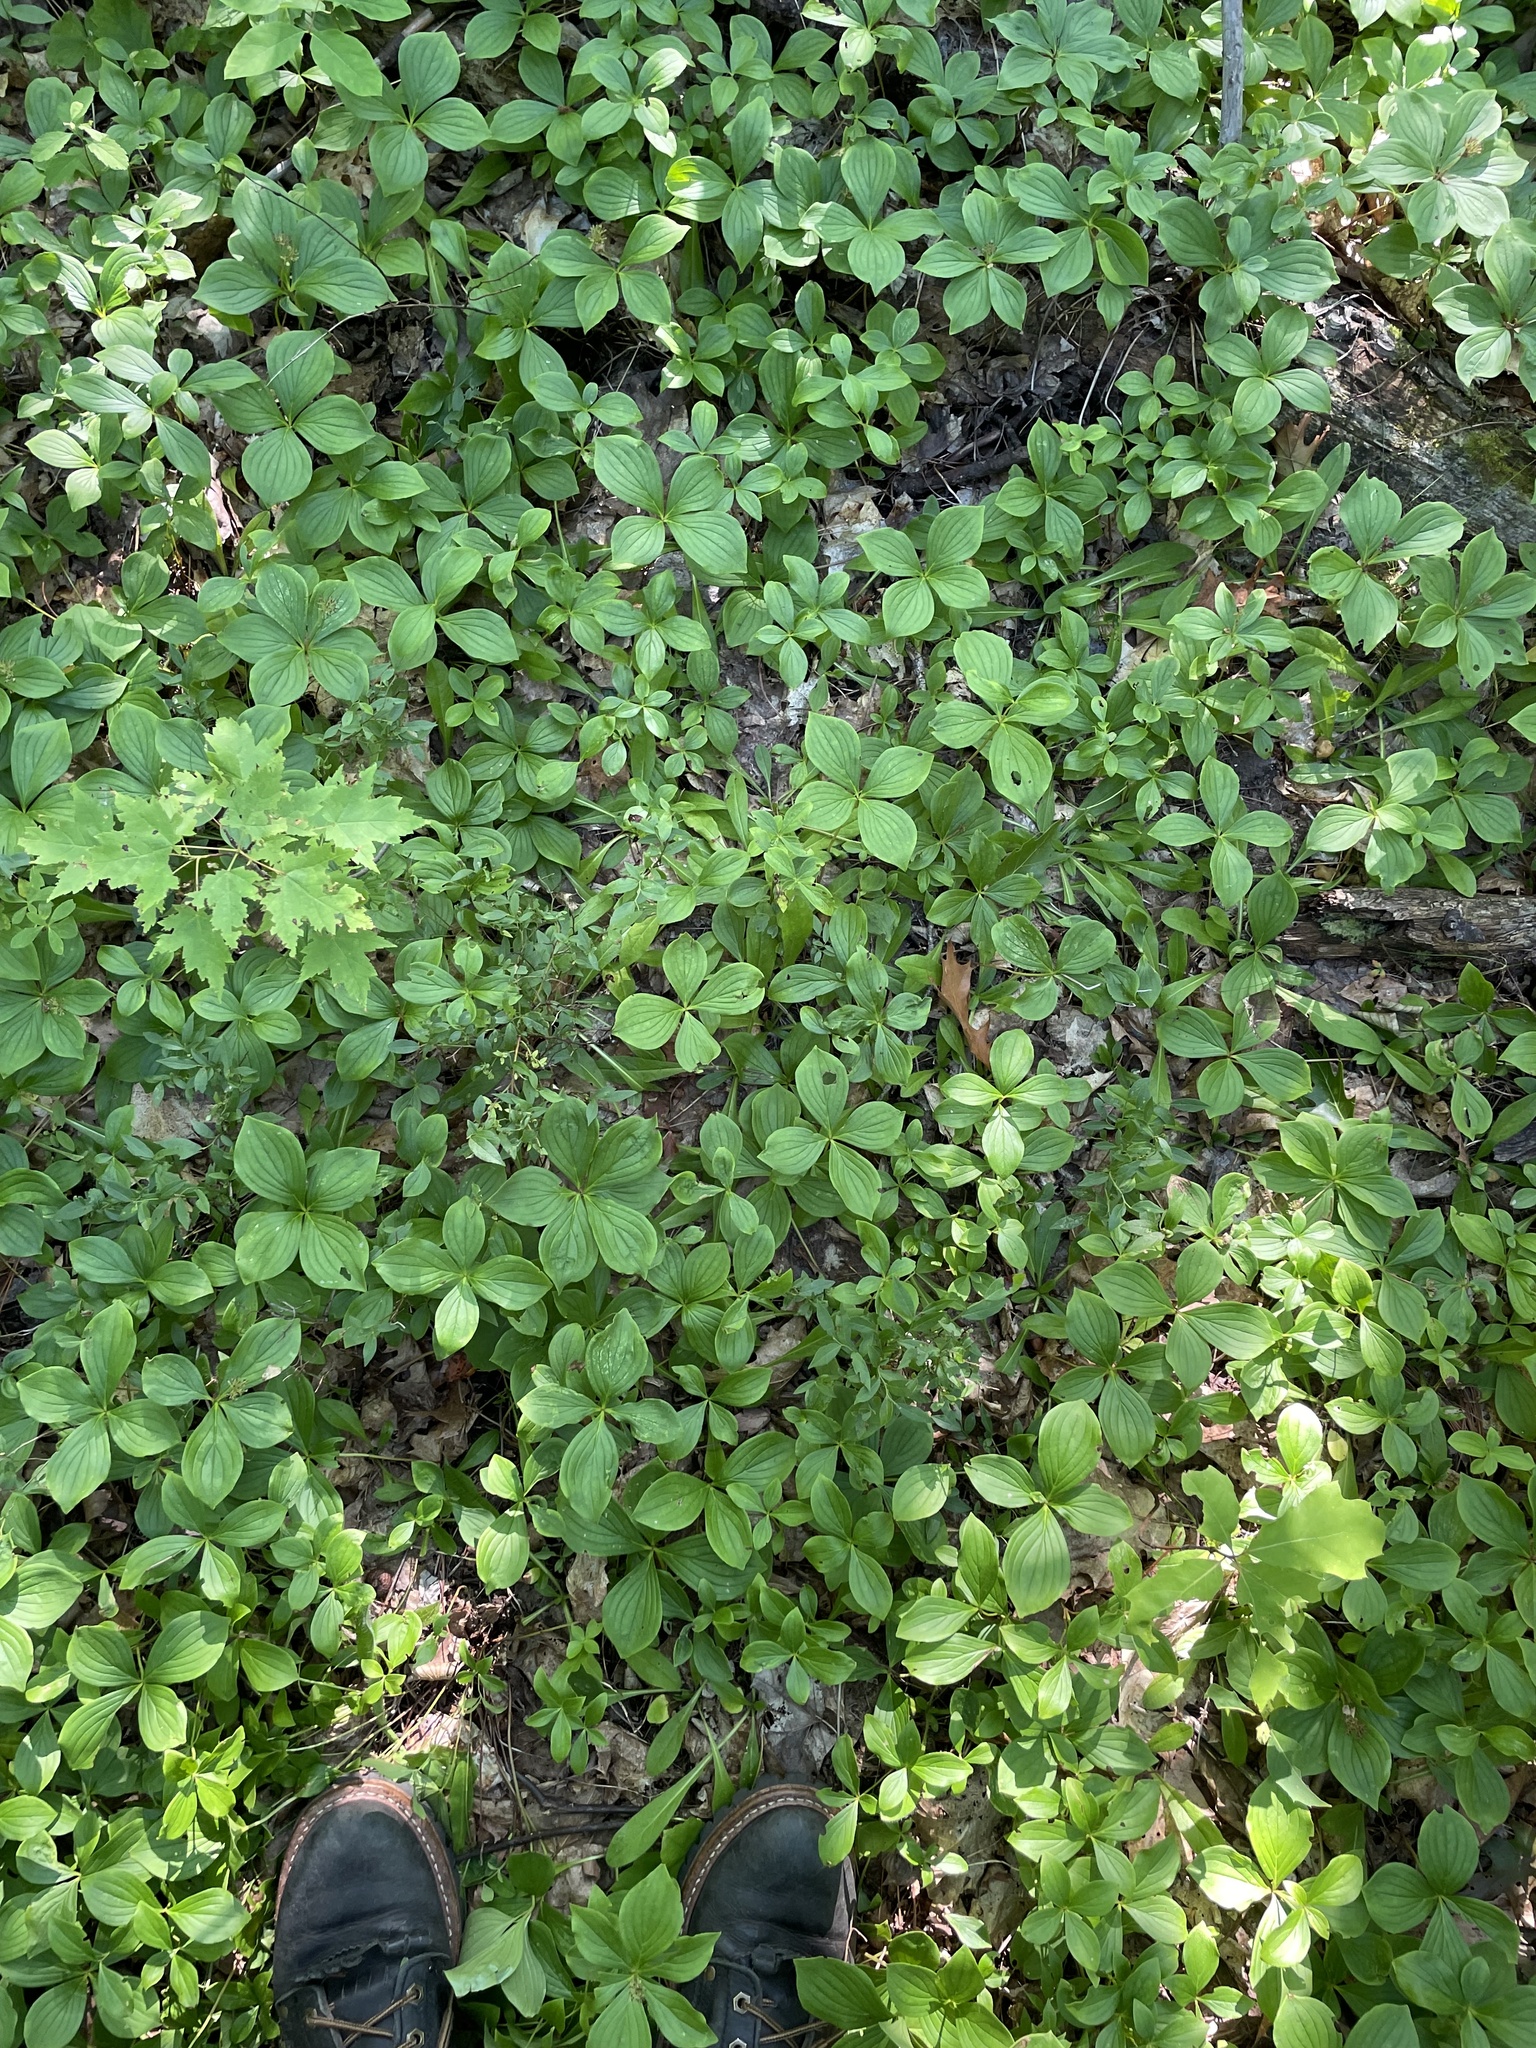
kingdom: Plantae
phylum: Tracheophyta
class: Magnoliopsida
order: Cornales
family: Cornaceae
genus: Cornus
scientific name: Cornus canadensis
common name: Creeping dogwood
